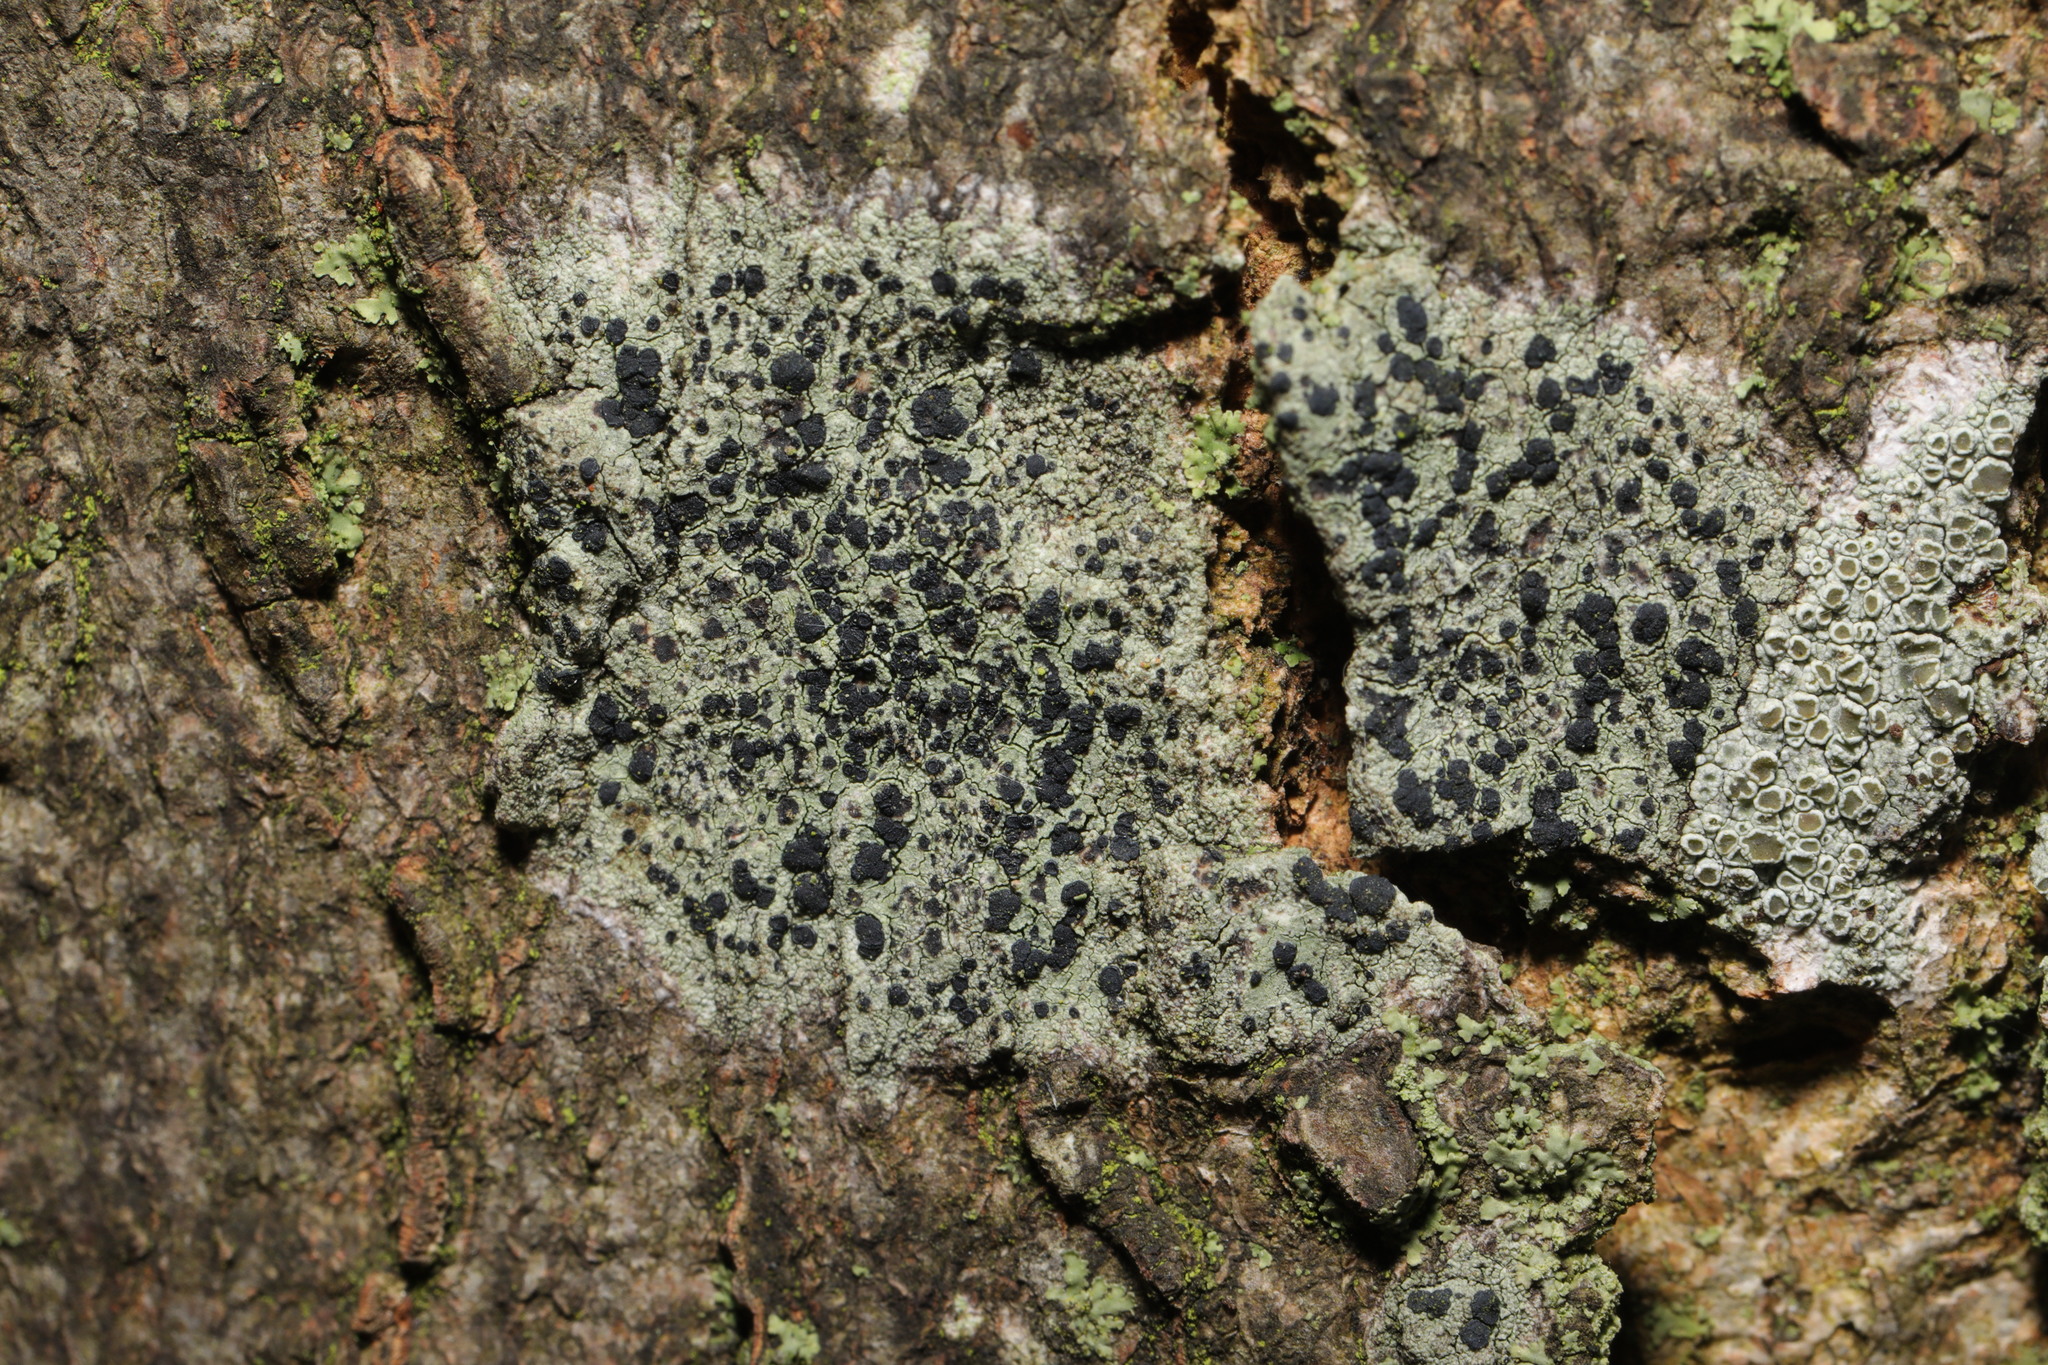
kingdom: Fungi
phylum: Ascomycota
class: Lecanoromycetes
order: Lecanorales
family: Lecanoraceae
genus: Lecidella
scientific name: Lecidella elaeochroma
